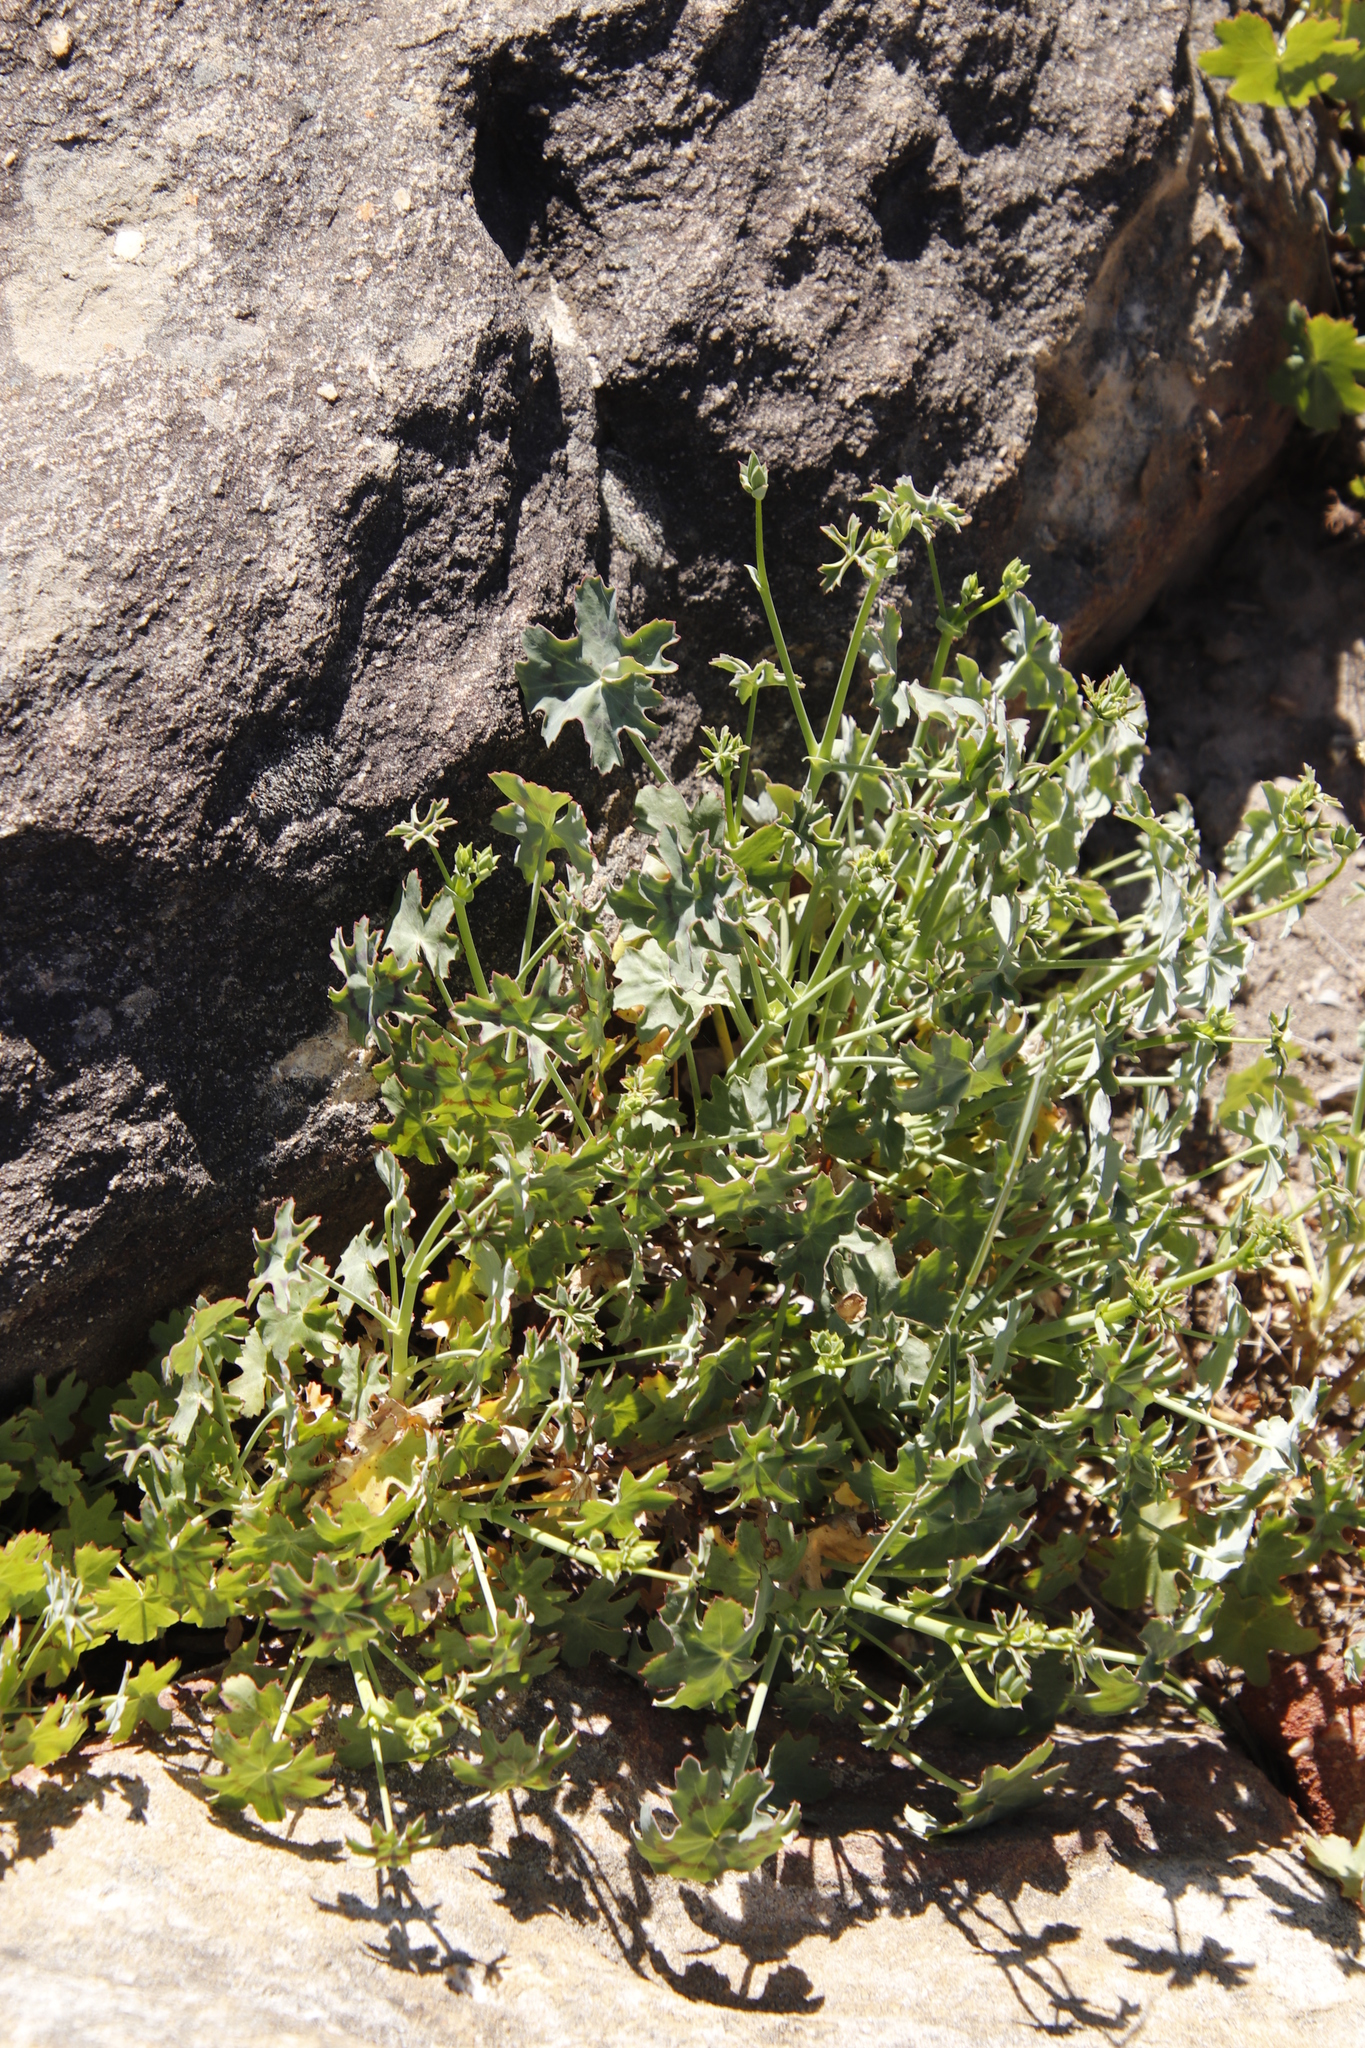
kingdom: Plantae
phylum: Tracheophyta
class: Magnoliopsida
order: Geraniales
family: Geraniaceae
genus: Pelargonium
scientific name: Pelargonium tabulare
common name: Table mountain pelargonium
